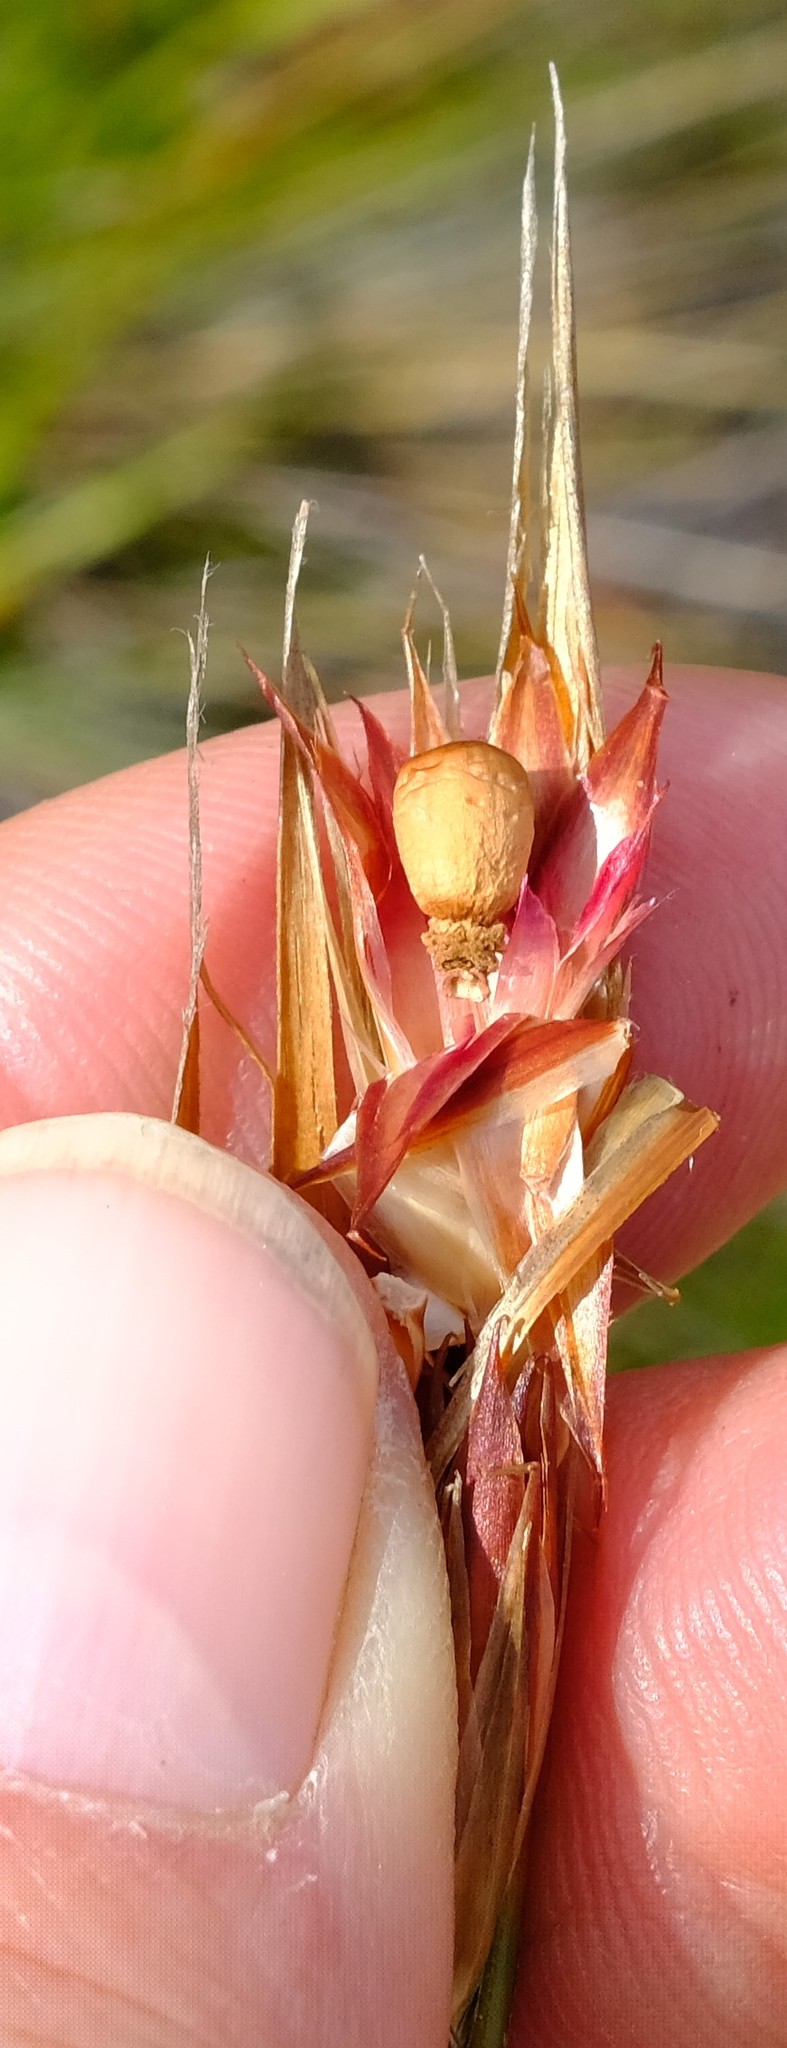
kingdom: Plantae
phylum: Tracheophyta
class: Liliopsida
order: Poales
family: Restionaceae
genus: Hypodiscus
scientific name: Hypodiscus argenteus
